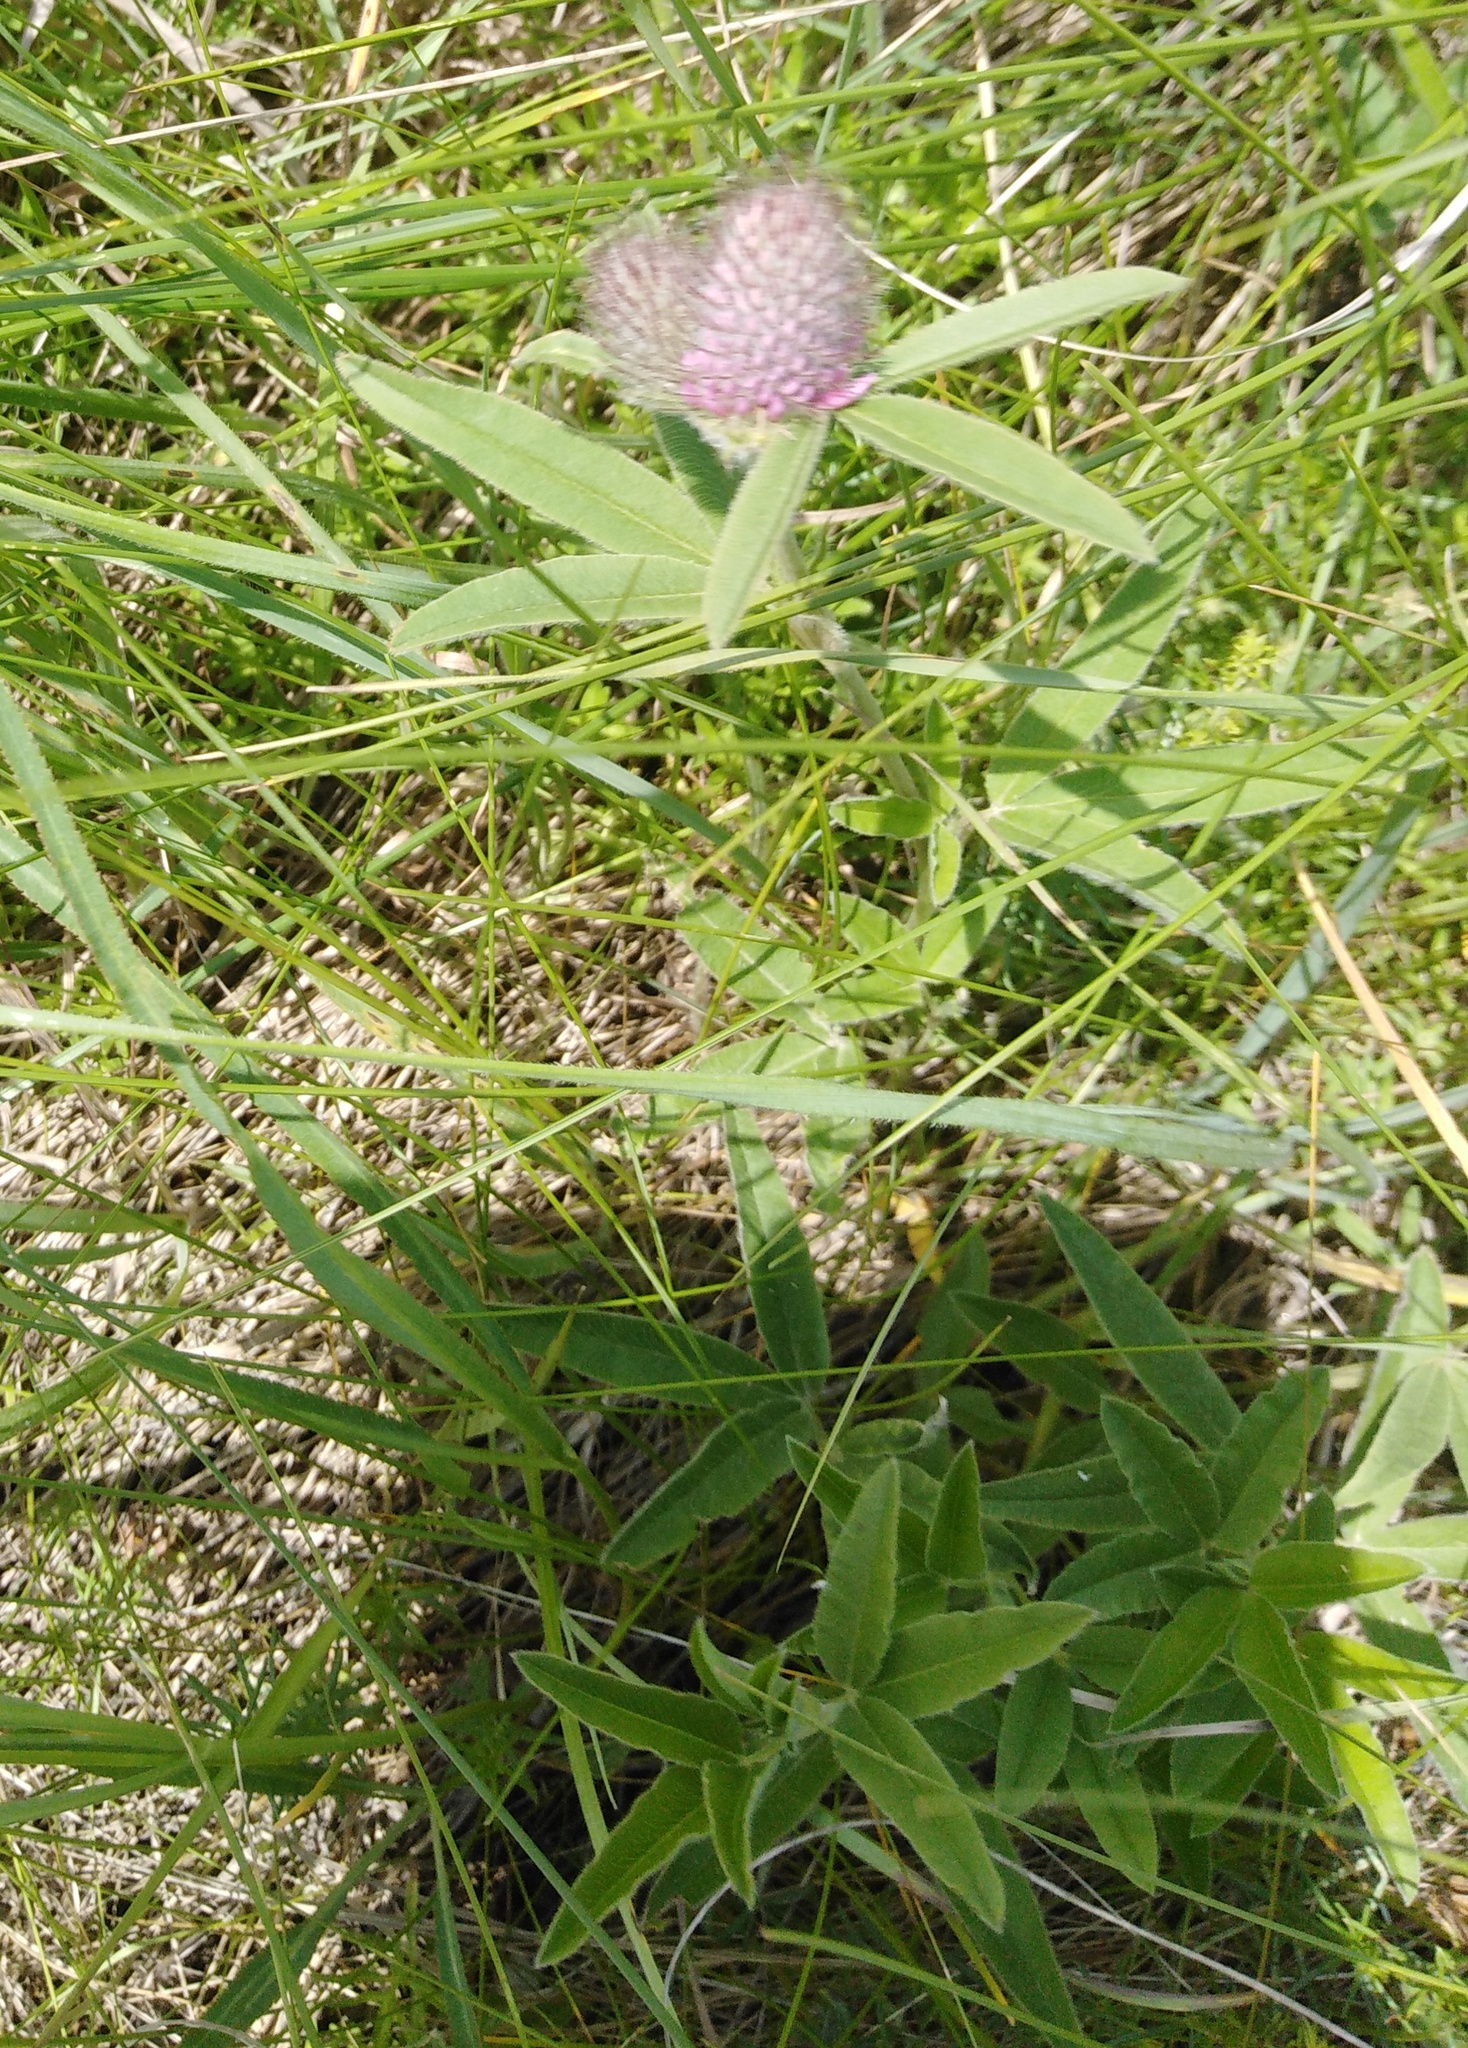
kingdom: Plantae
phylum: Tracheophyta
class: Magnoliopsida
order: Fabales
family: Fabaceae
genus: Trifolium
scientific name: Trifolium alpestre
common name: Owl-head clover
